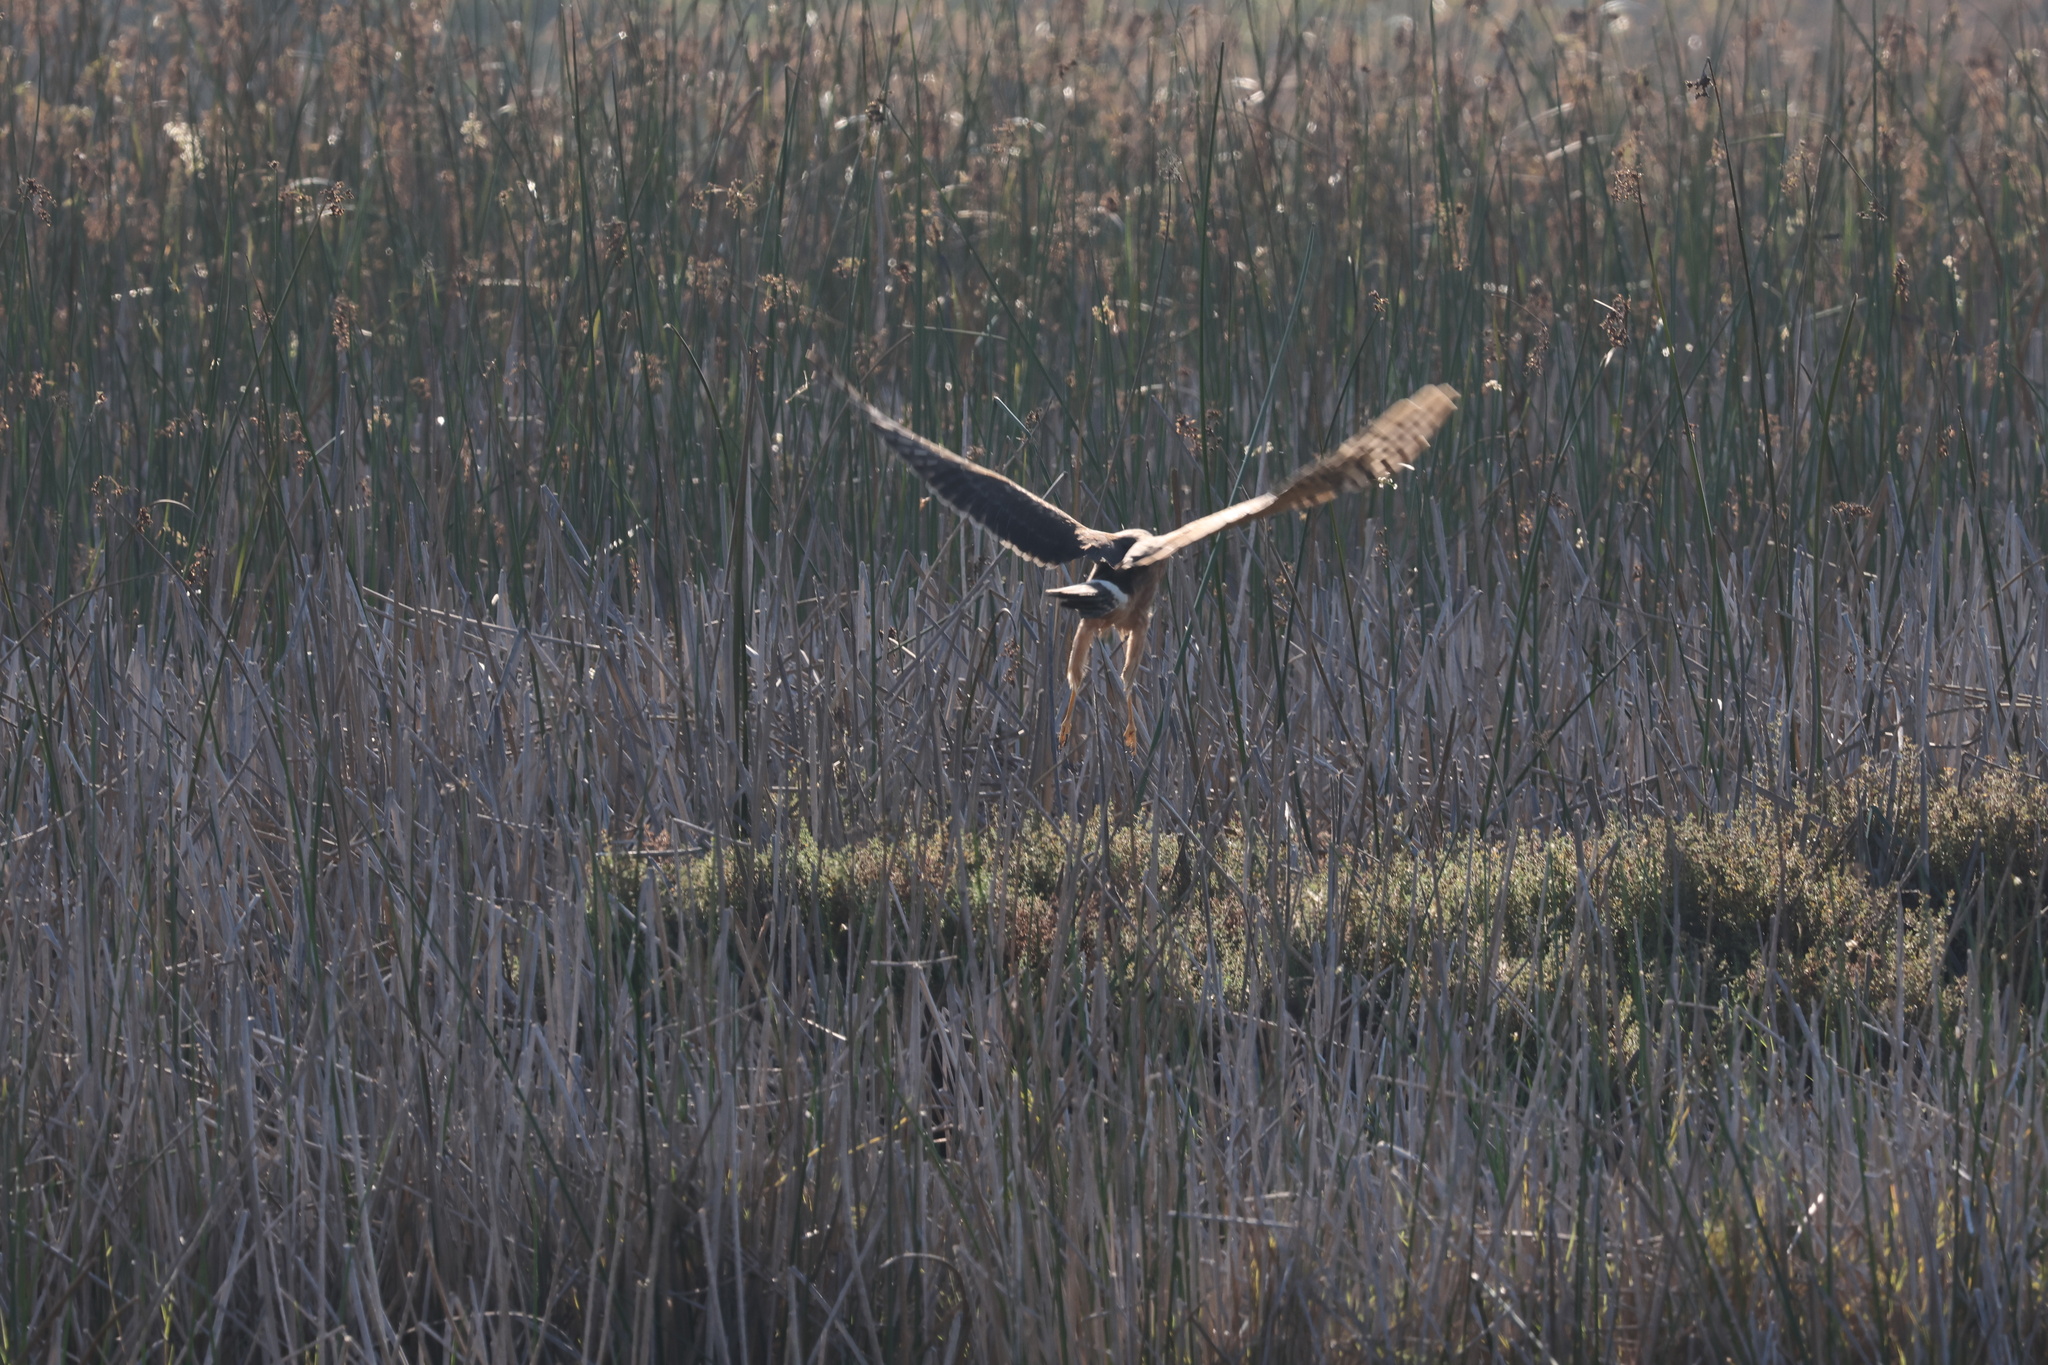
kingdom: Animalia
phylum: Chordata
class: Aves
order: Accipitriformes
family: Accipitridae
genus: Circus
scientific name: Circus cyaneus
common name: Hen harrier
